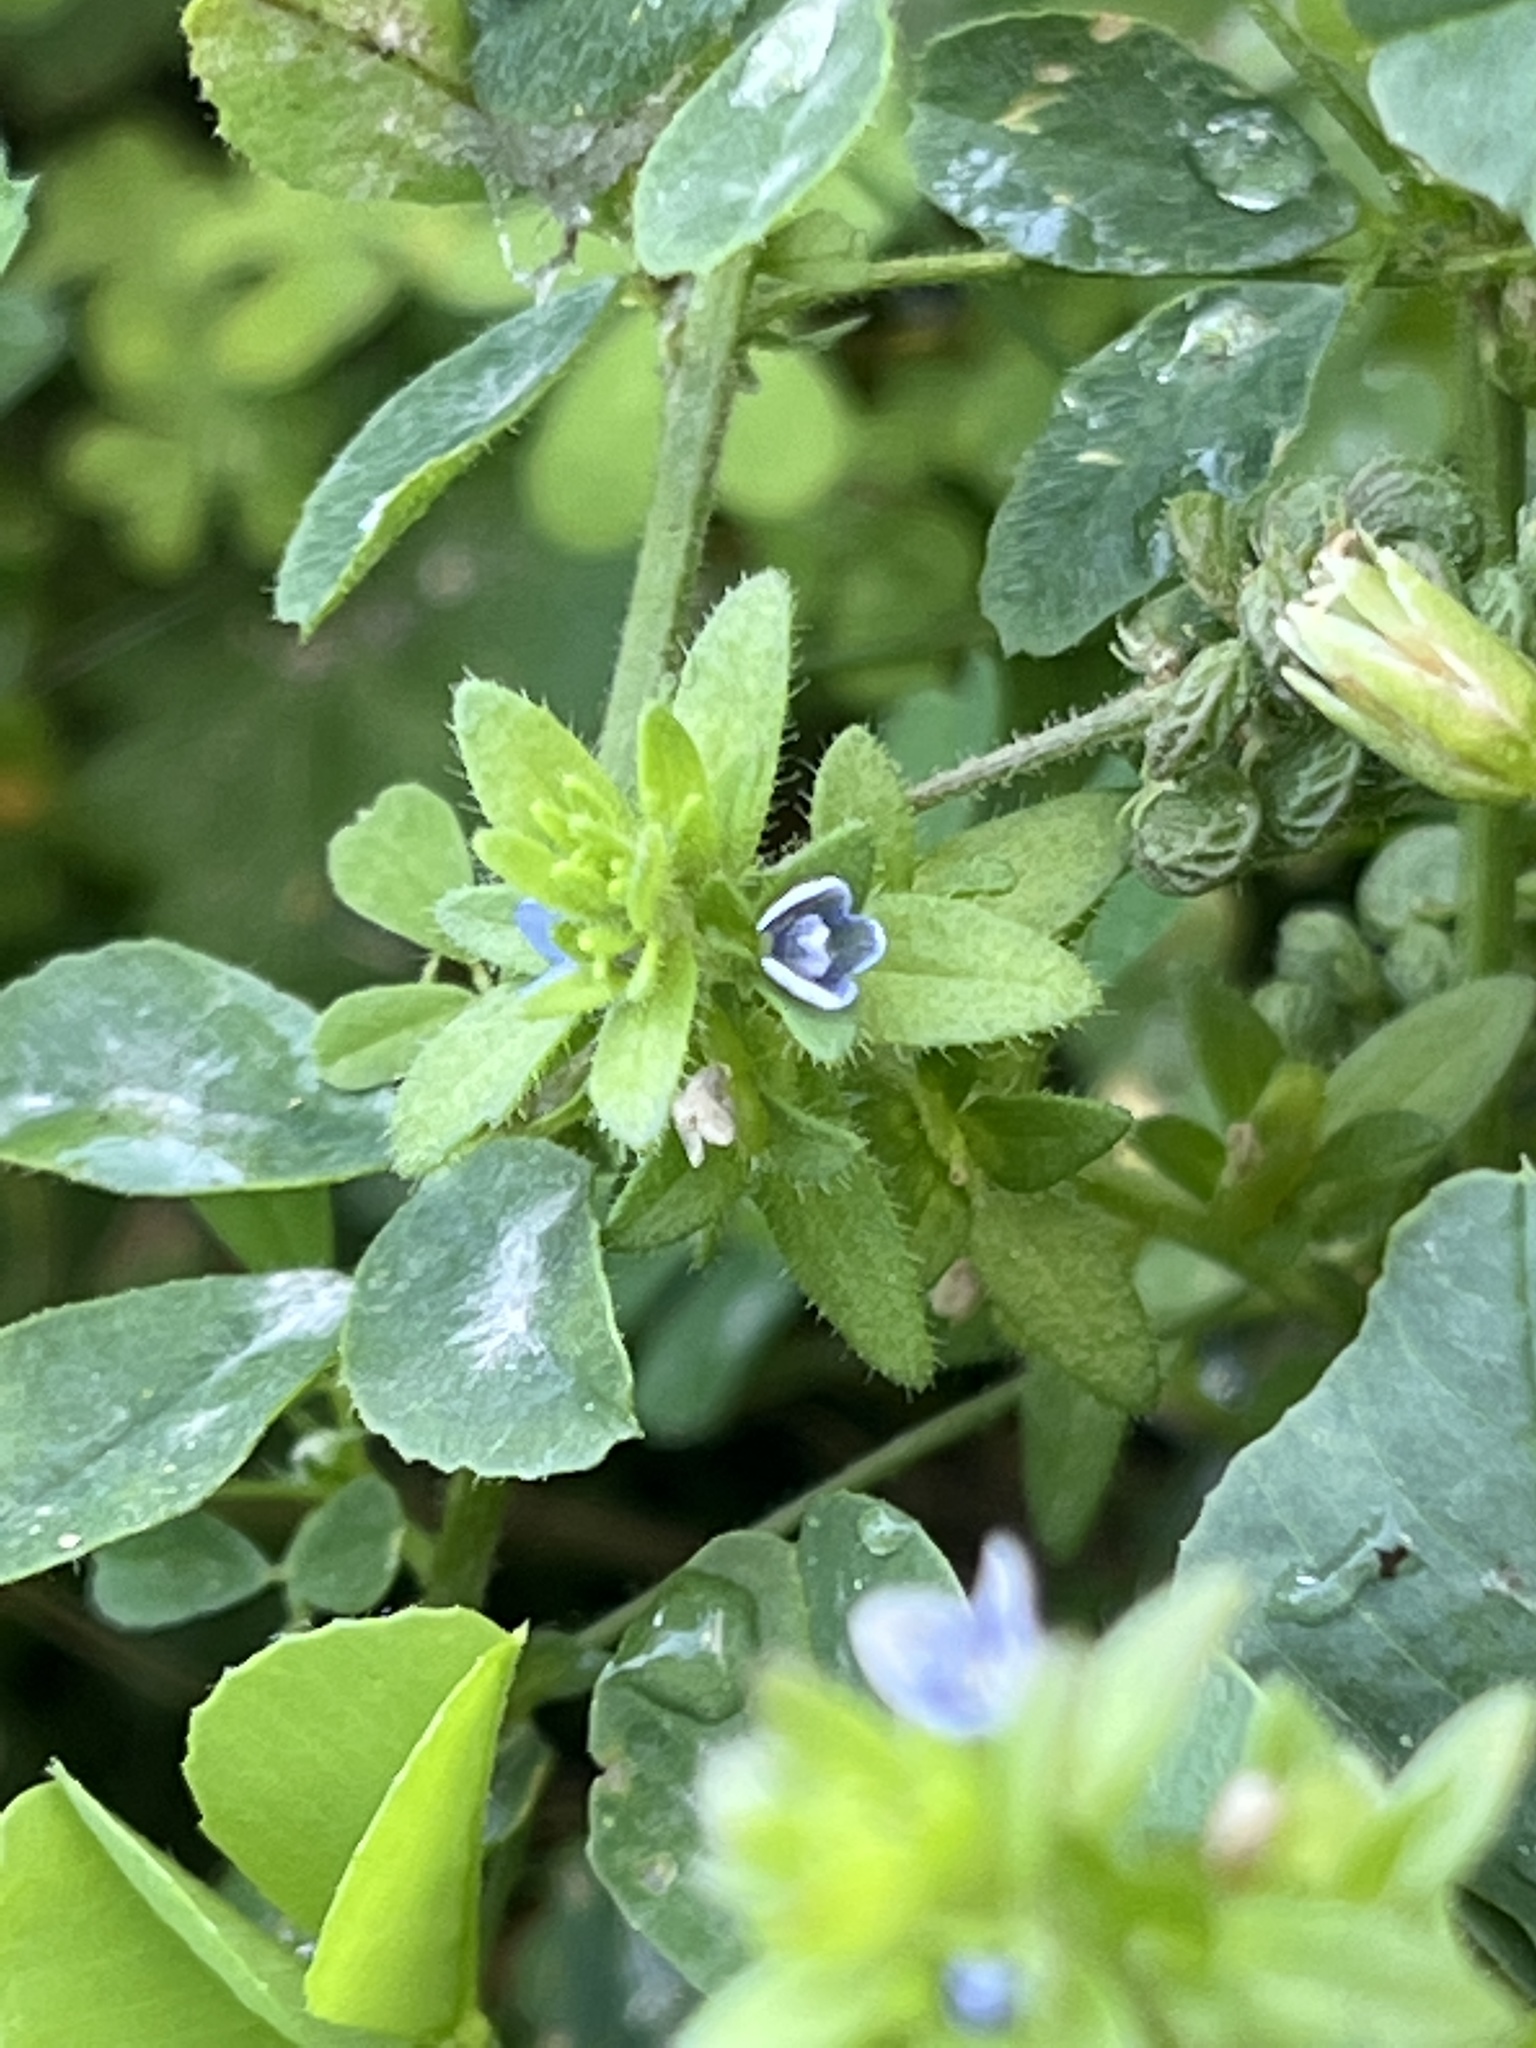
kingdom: Plantae
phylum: Tracheophyta
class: Magnoliopsida
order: Lamiales
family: Plantaginaceae
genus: Veronica
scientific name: Veronica arvensis
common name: Corn speedwell
